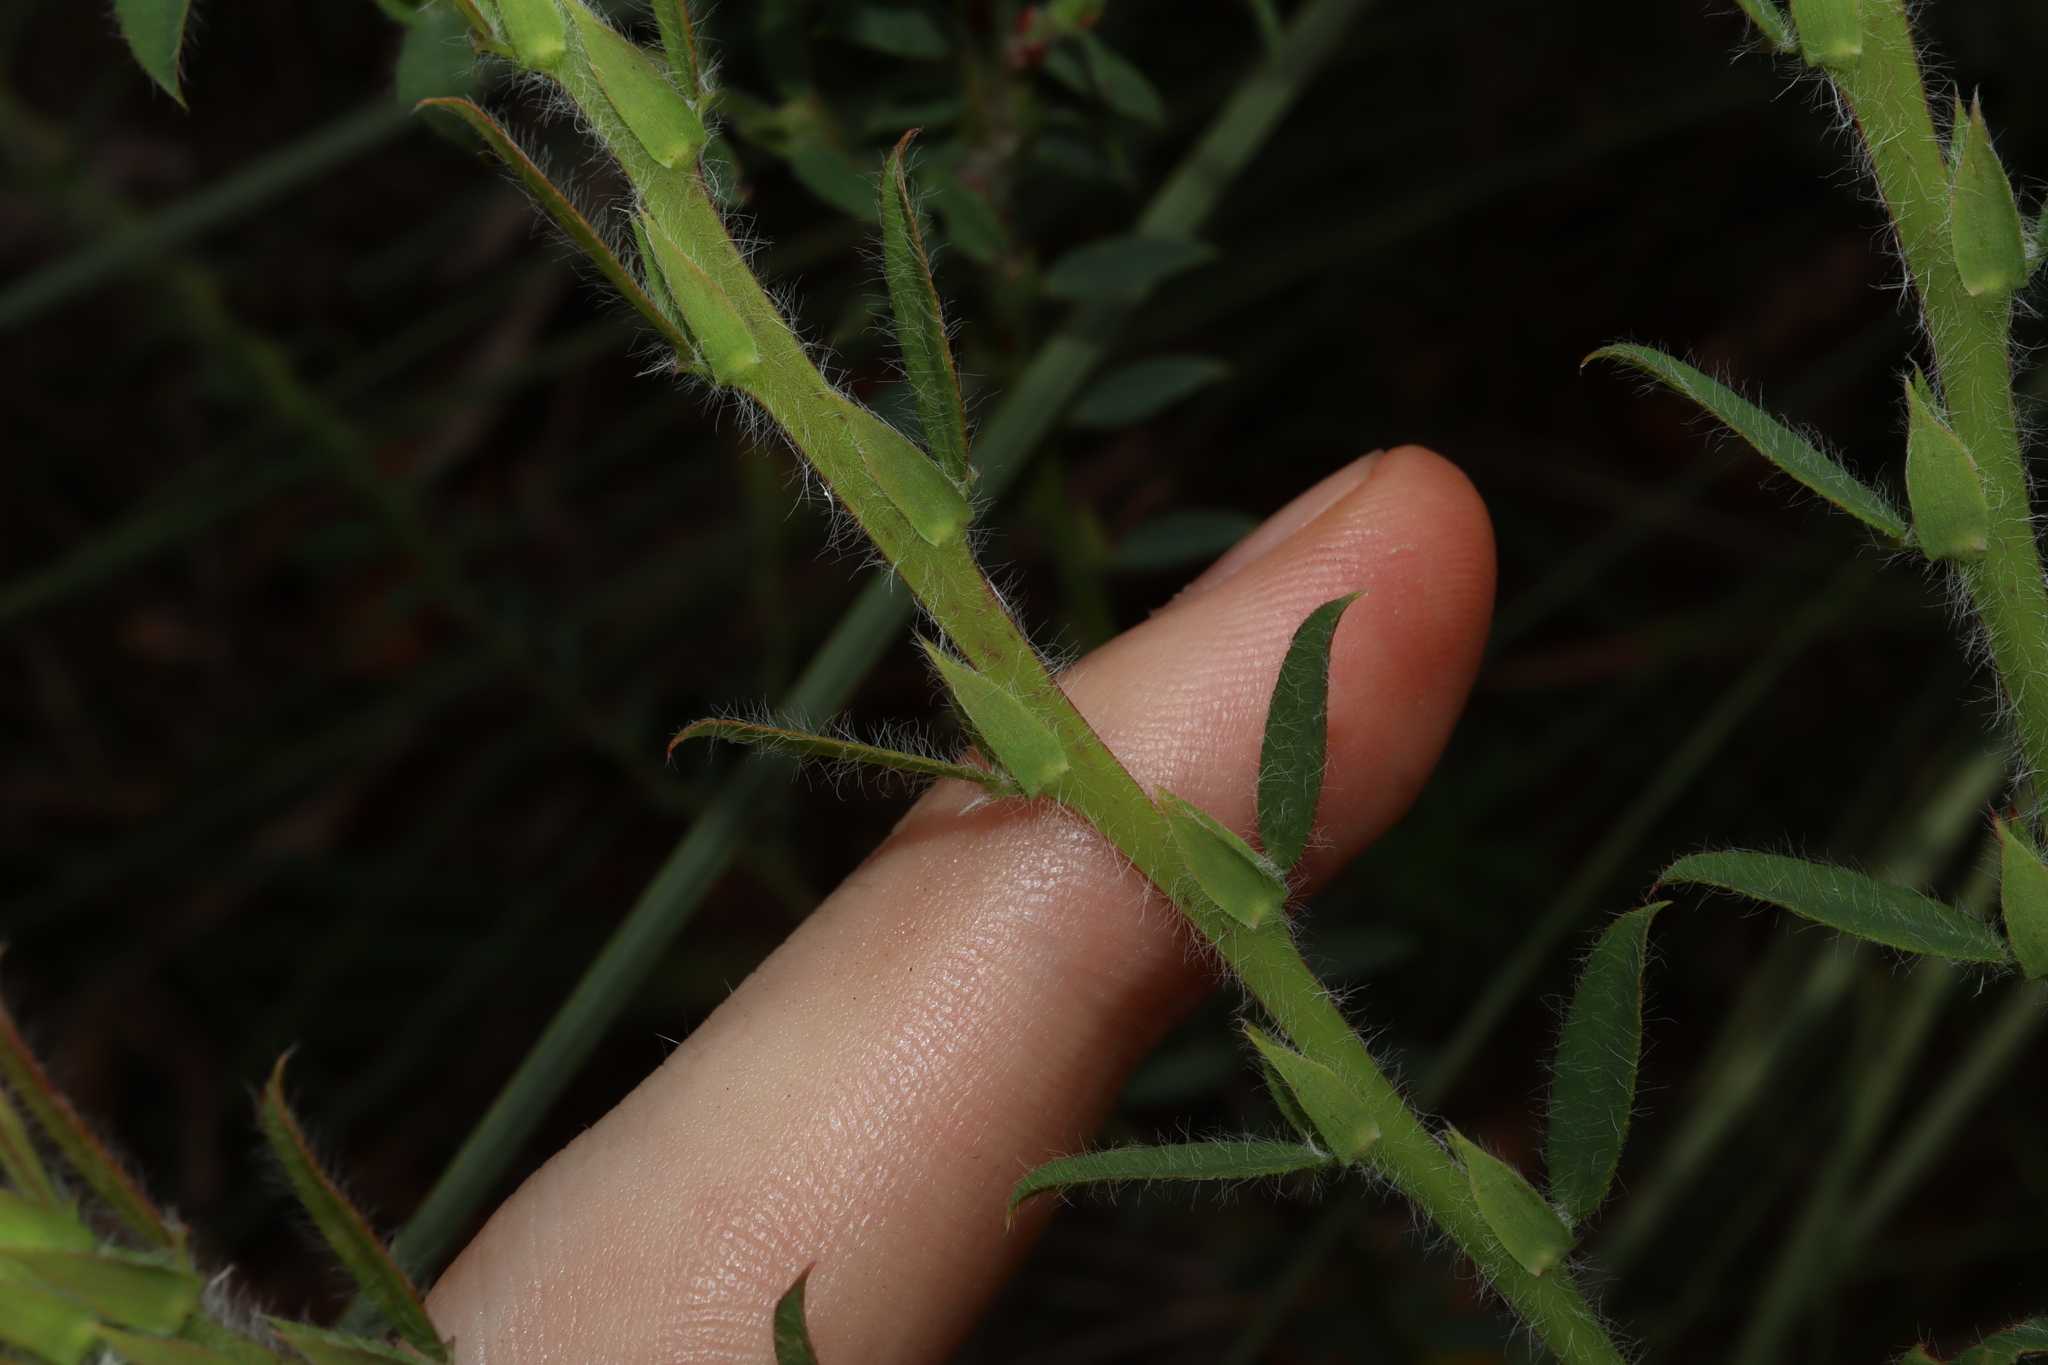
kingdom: Plantae
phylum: Tracheophyta
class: Magnoliopsida
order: Fabales
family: Fabaceae
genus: Bossiaea
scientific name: Bossiaea stephensonii
